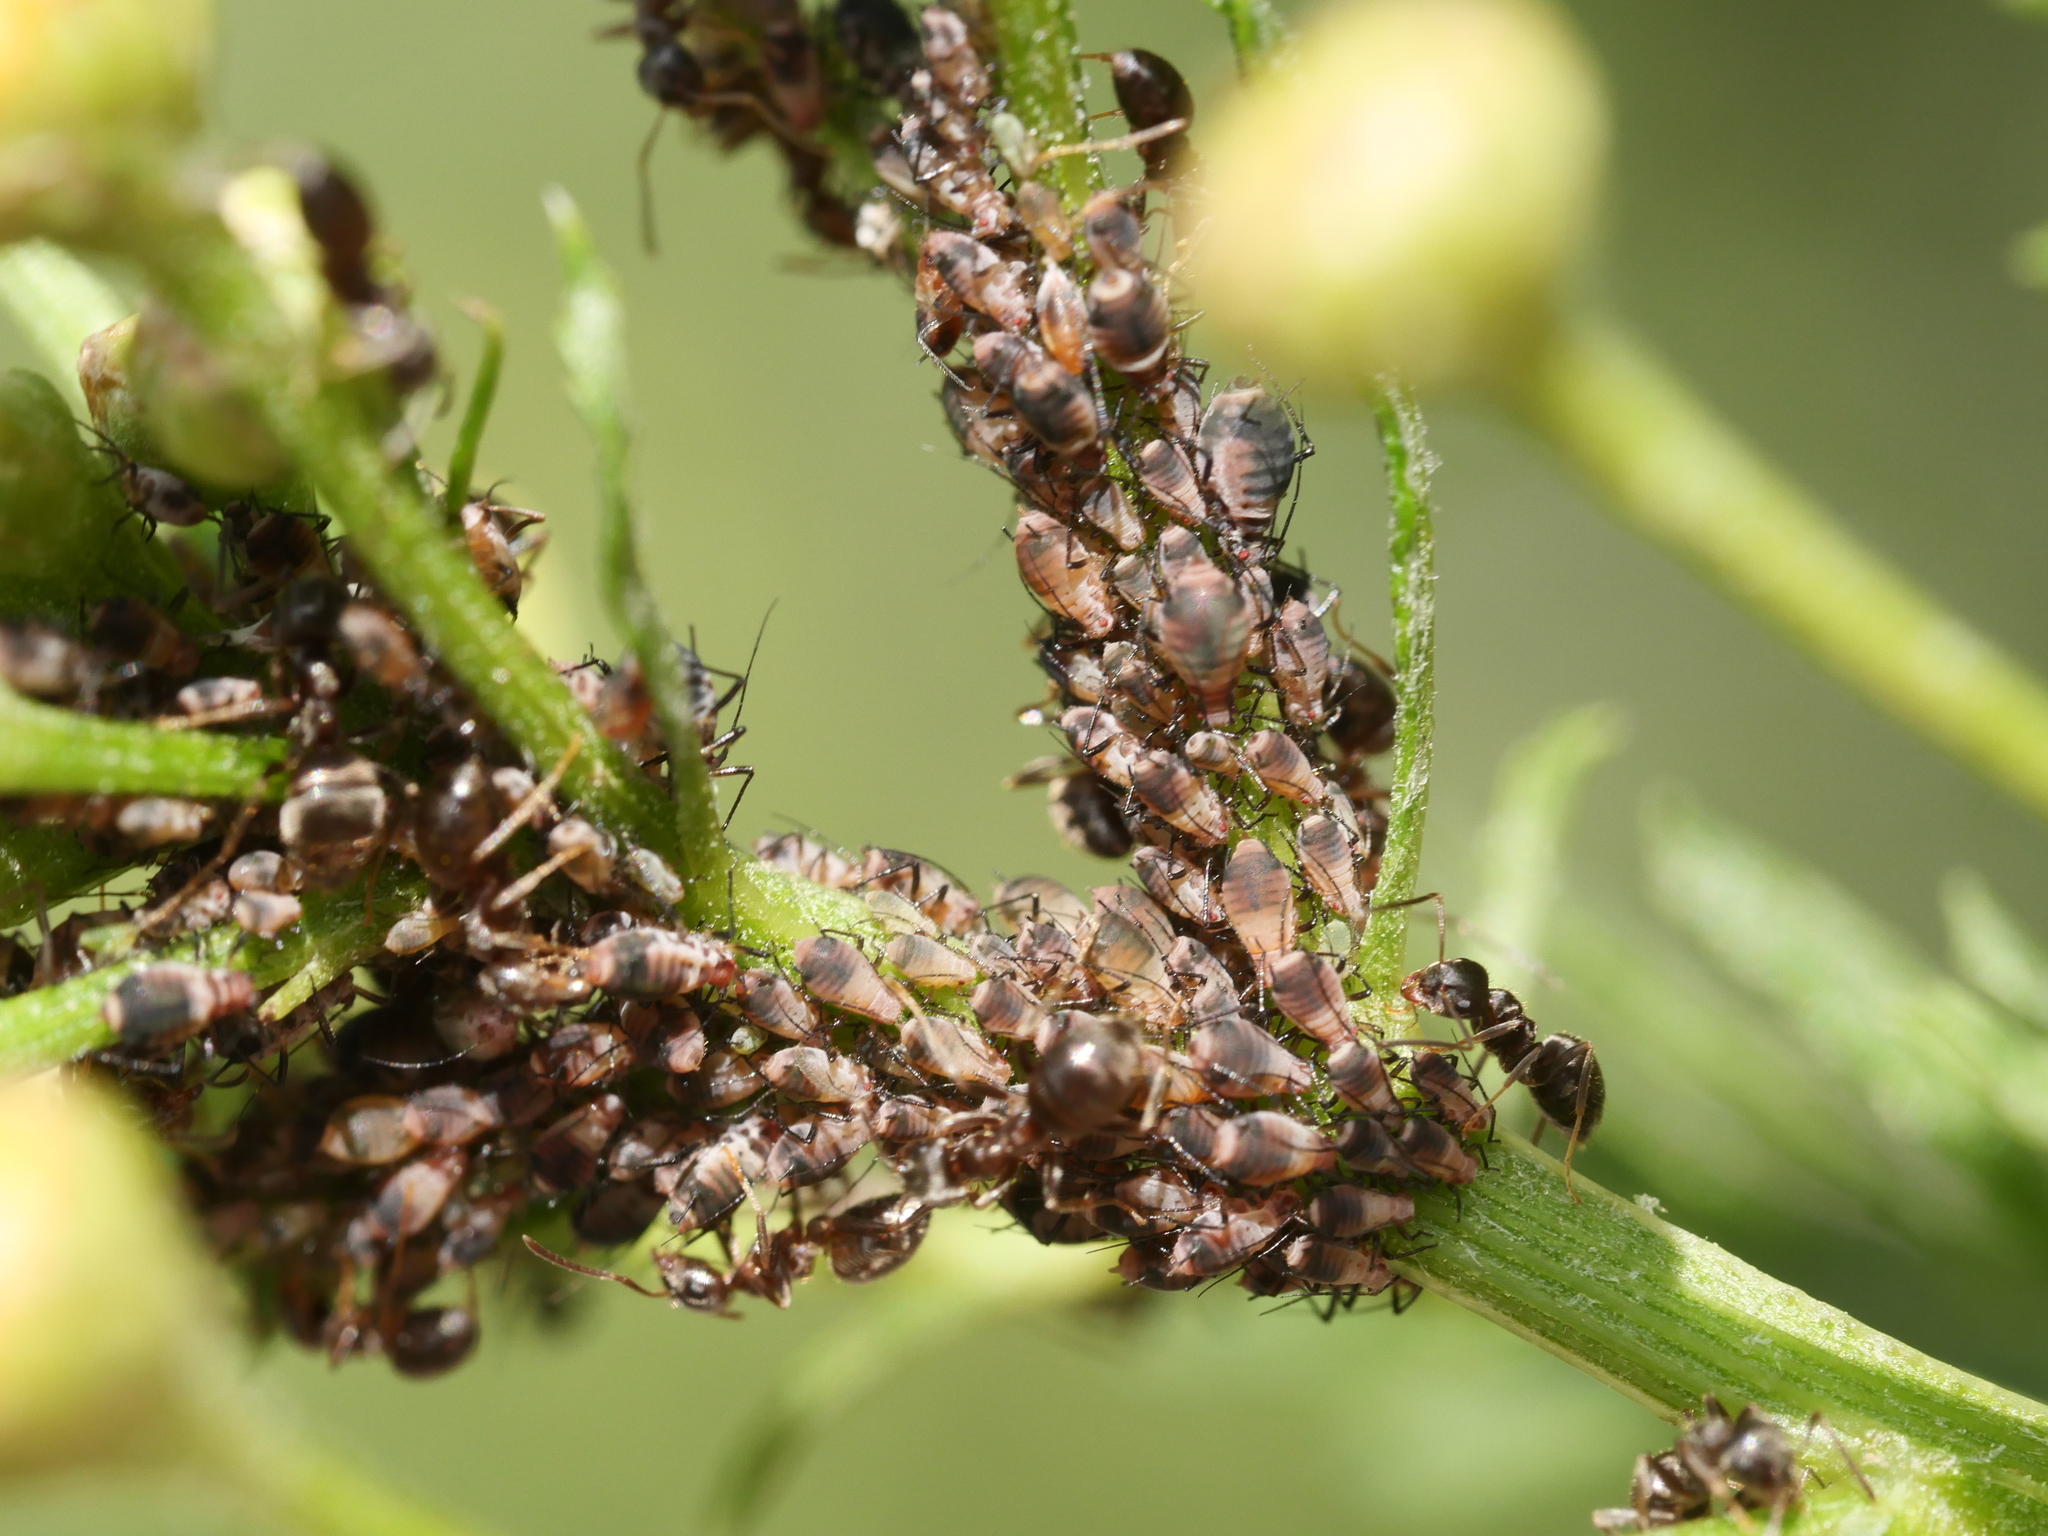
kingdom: Animalia
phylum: Arthropoda
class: Insecta
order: Hemiptera
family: Aphididae
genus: Metopeurum
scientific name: Metopeurum fuscoviride
